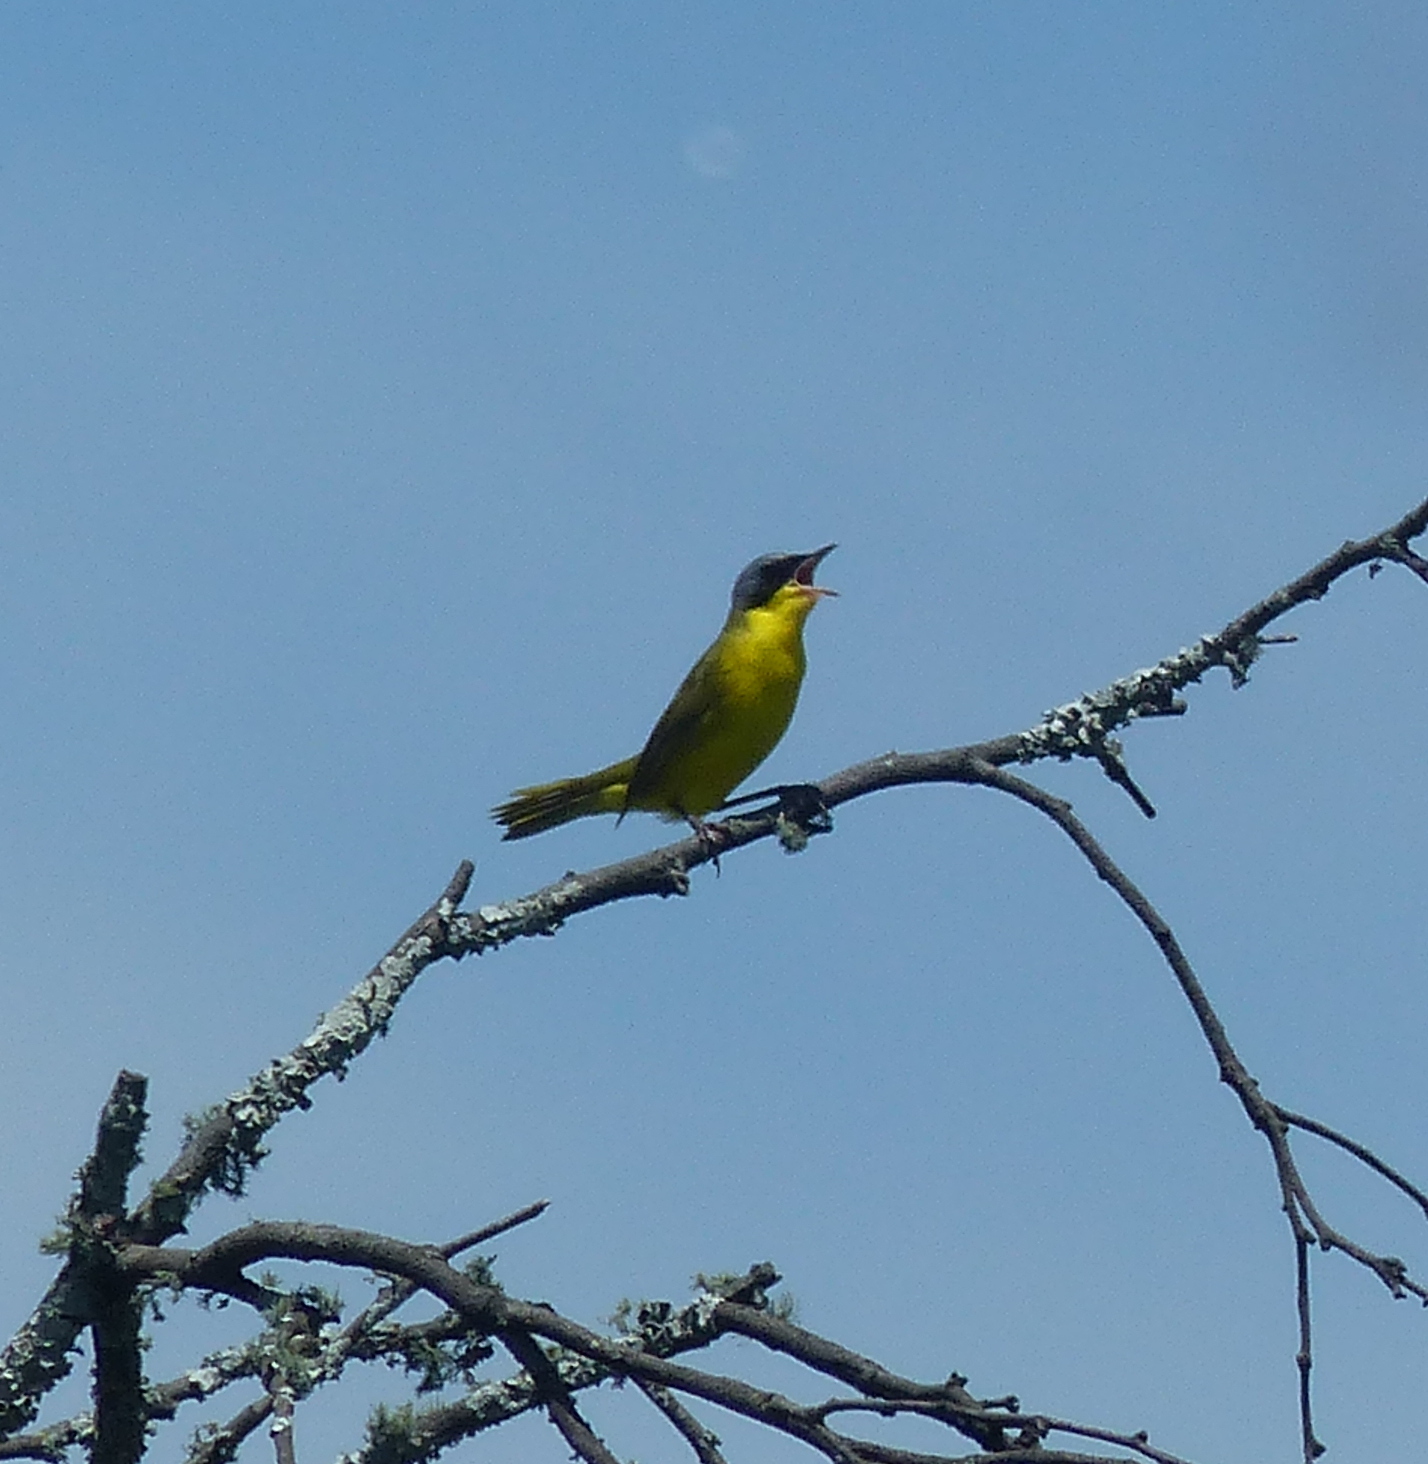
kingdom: Animalia
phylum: Chordata
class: Aves
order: Passeriformes
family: Parulidae
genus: Geothlypis
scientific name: Geothlypis velata
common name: Southern yellowthroat
